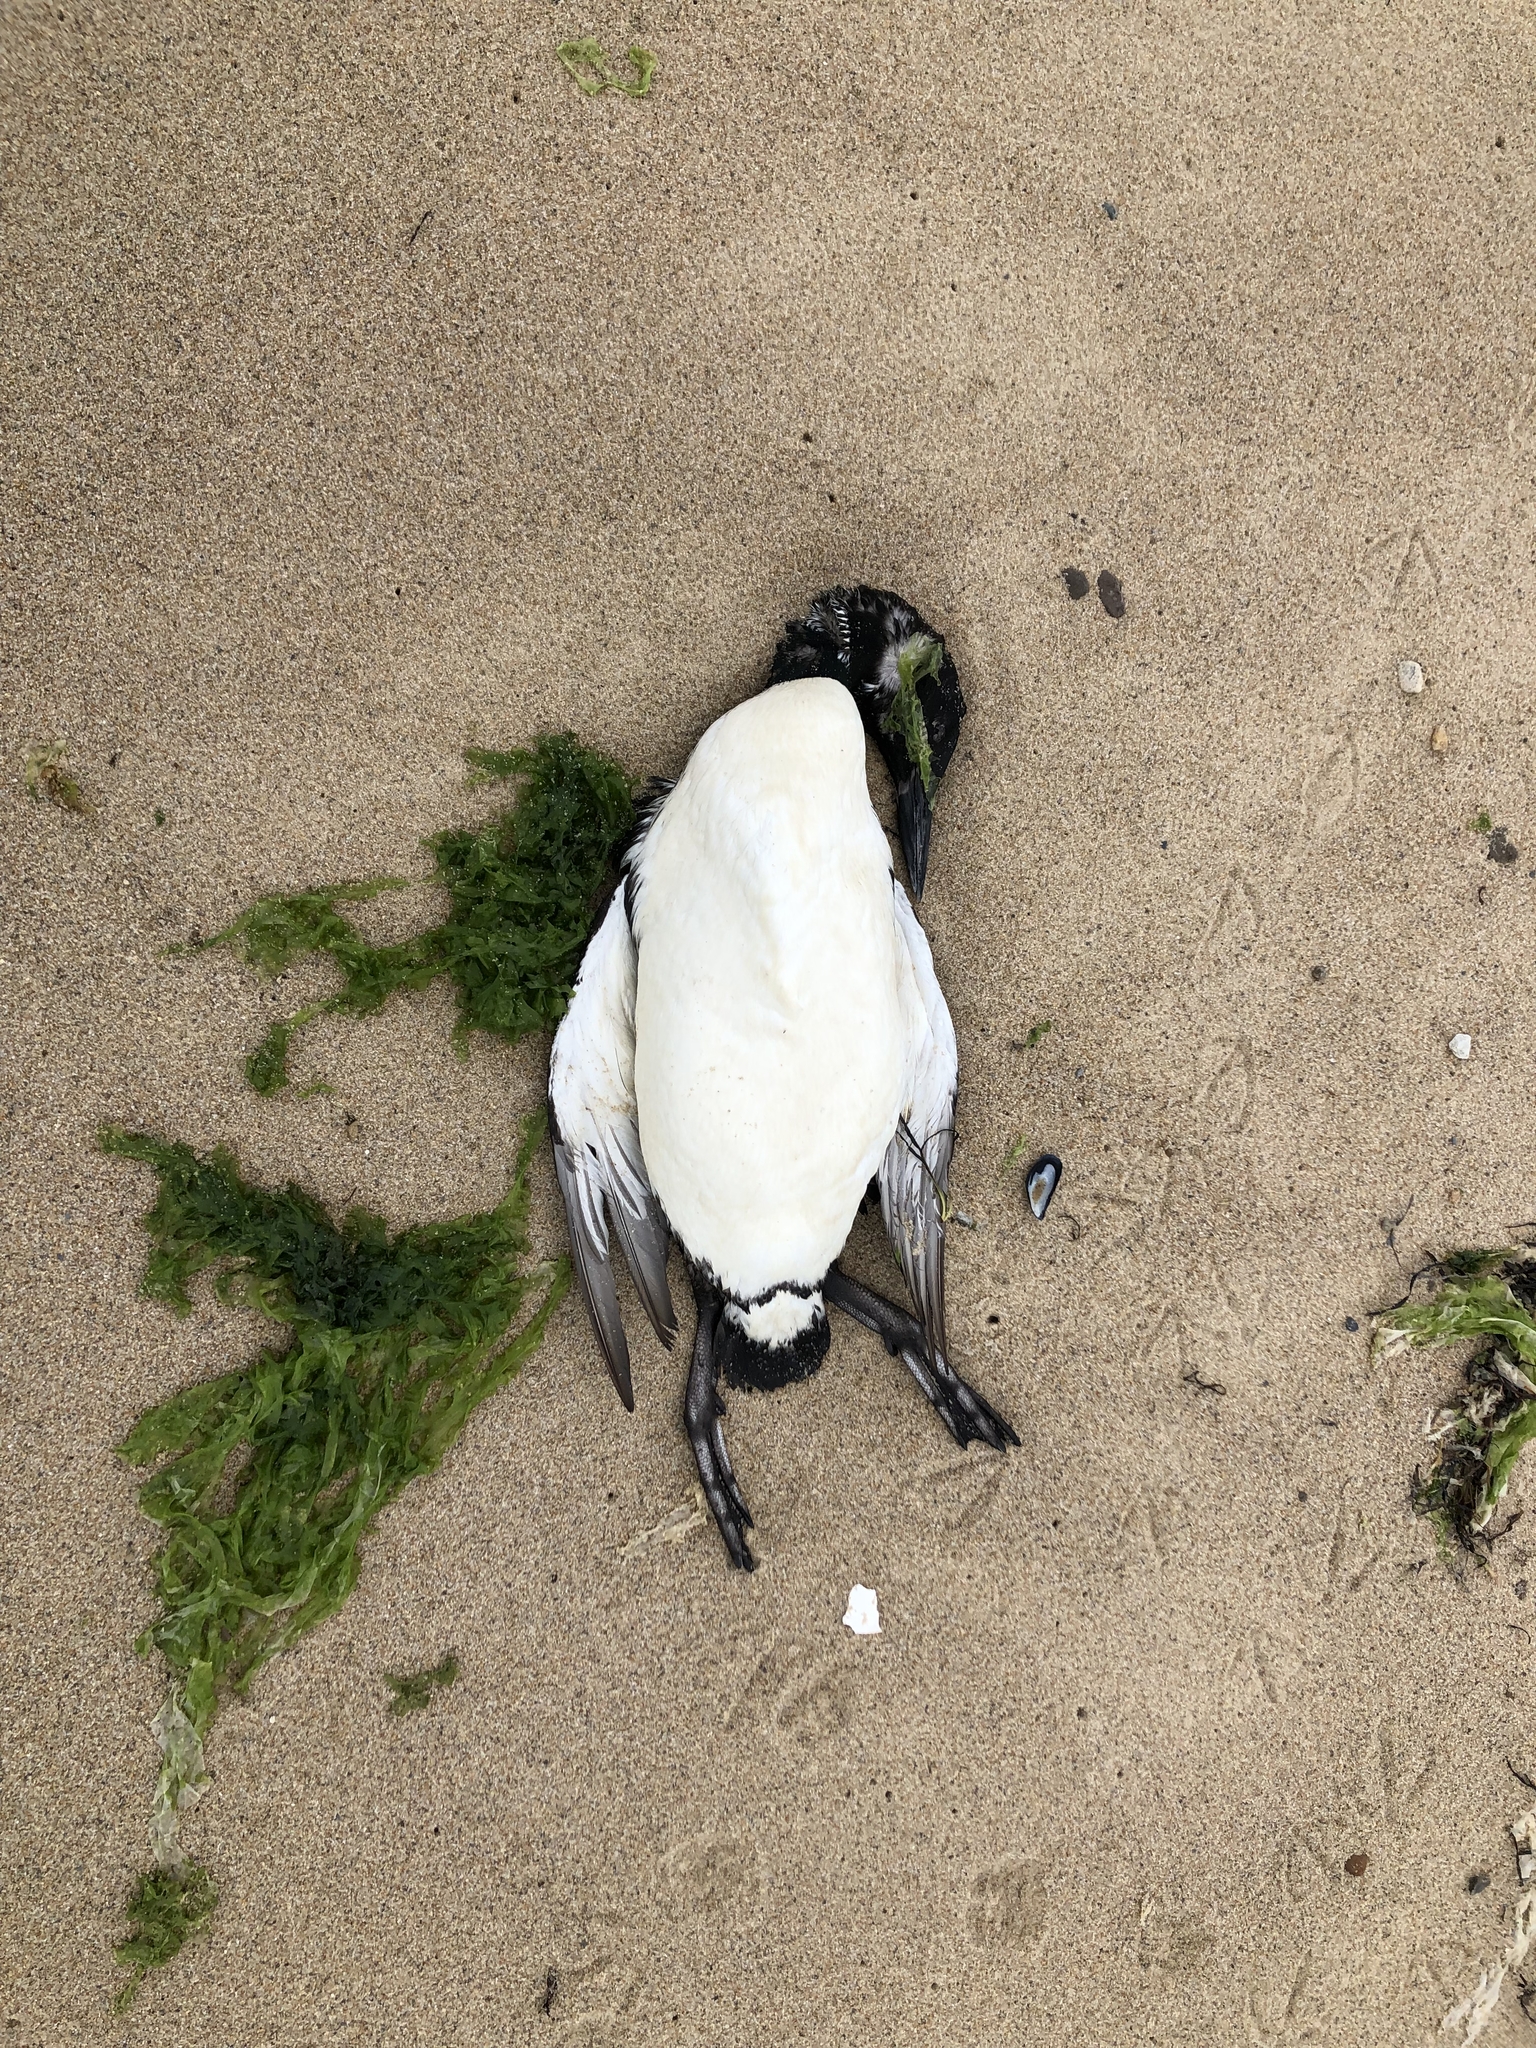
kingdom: Animalia
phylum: Chordata
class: Aves
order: Gaviiformes
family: Gaviidae
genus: Gavia
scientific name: Gavia immer
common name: Common loon
